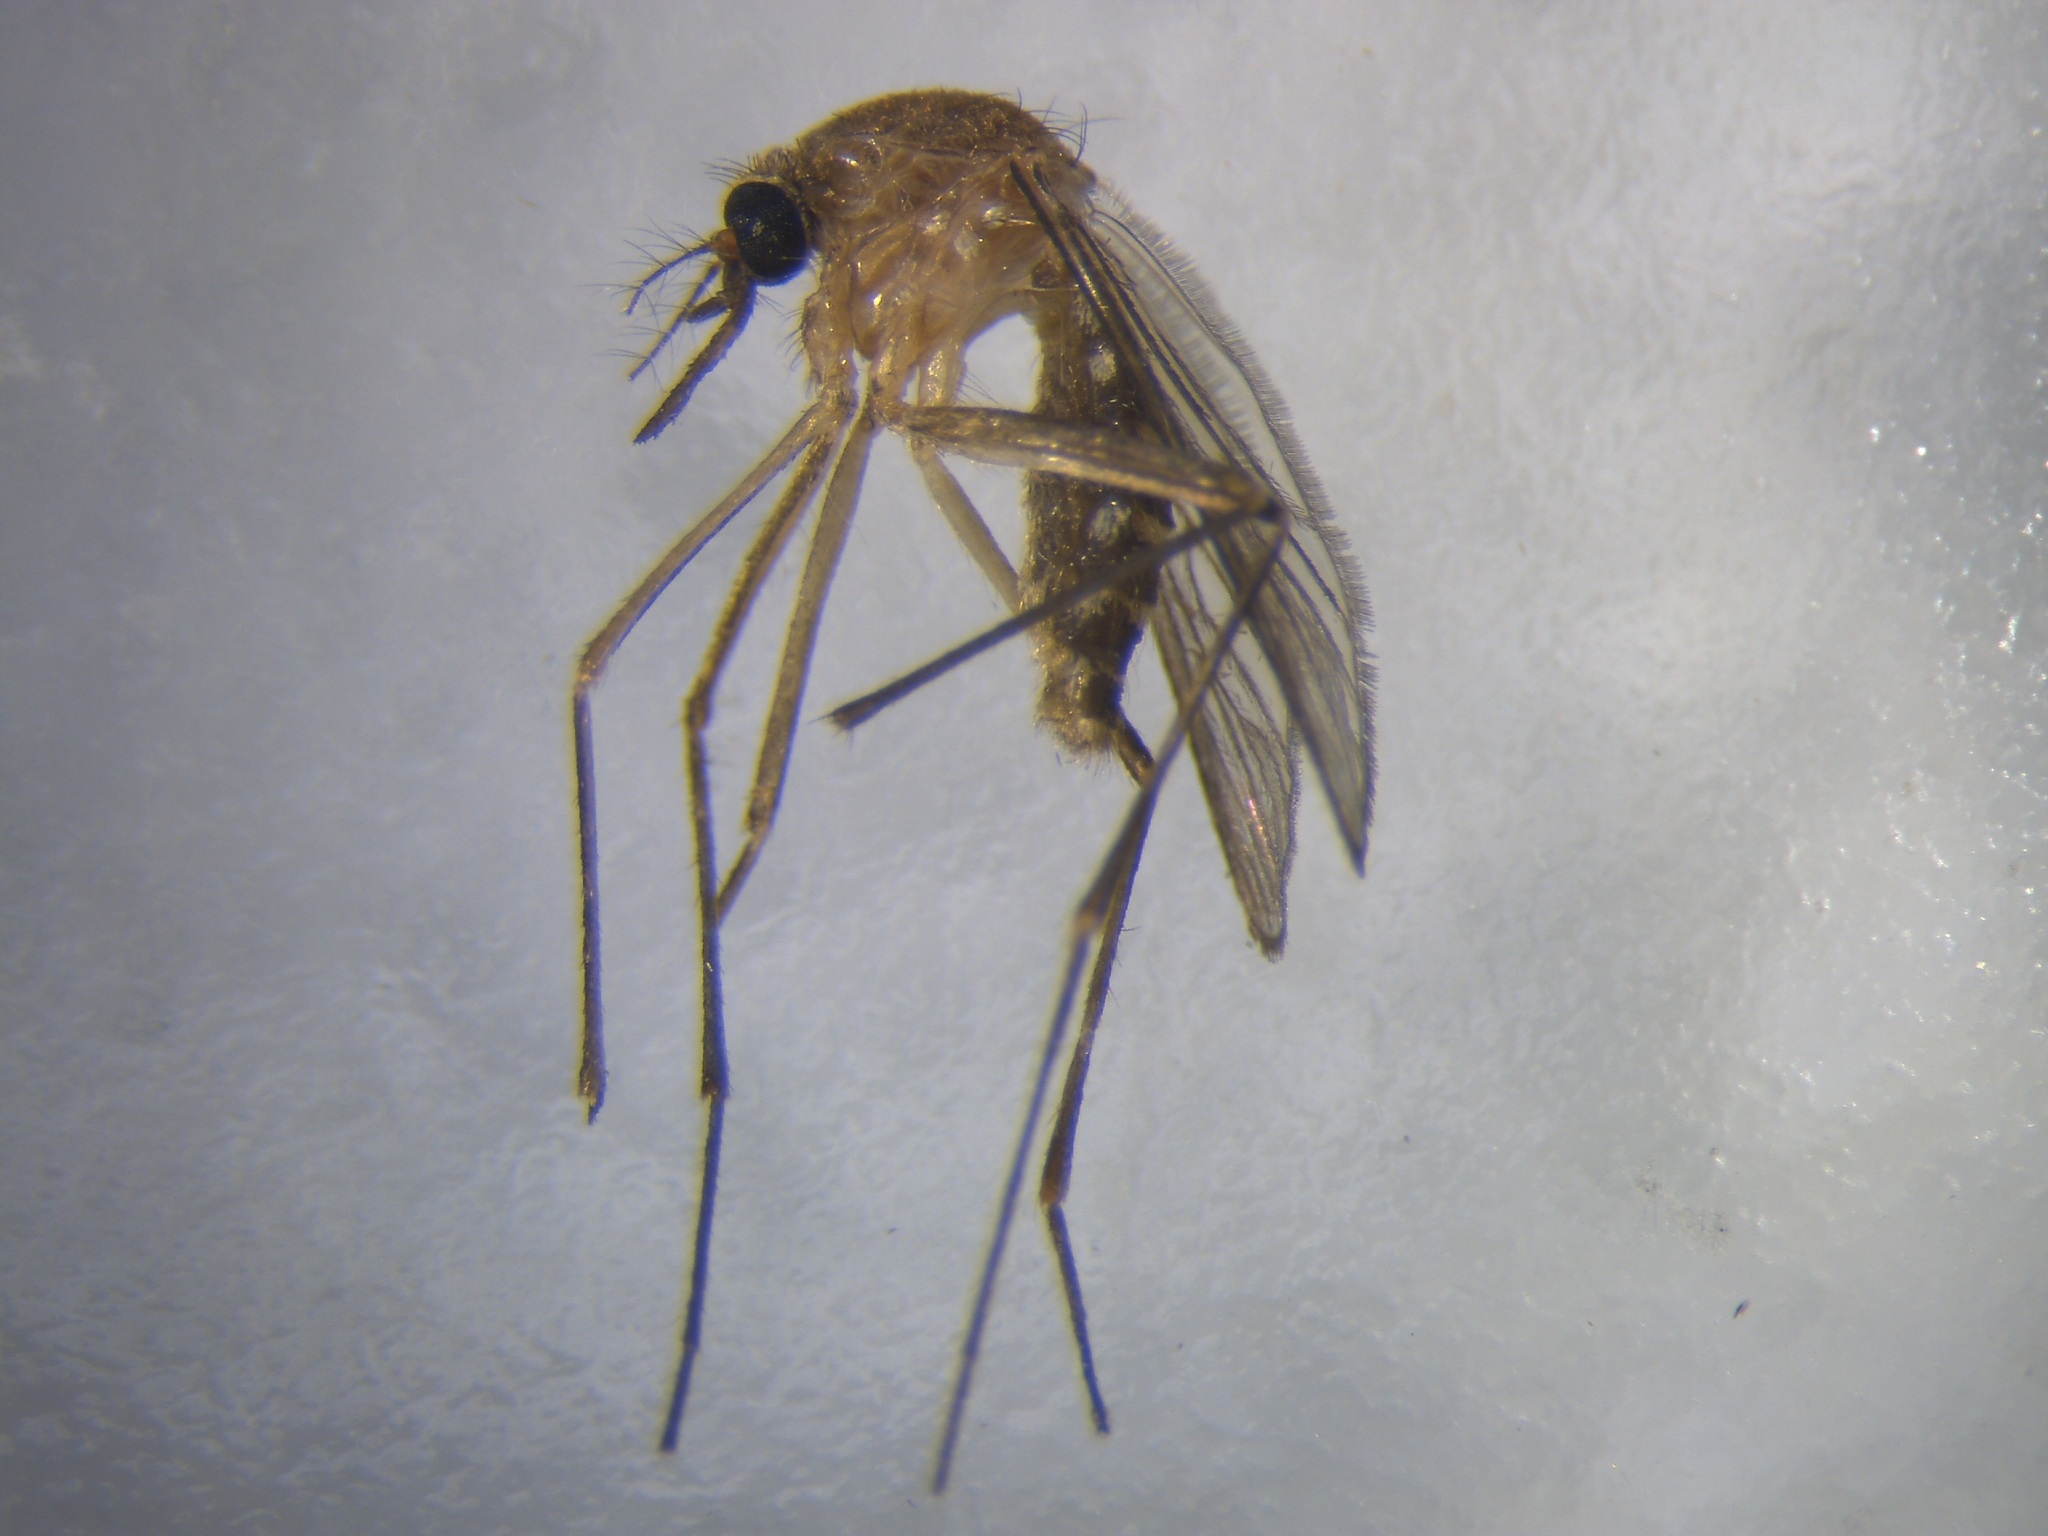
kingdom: Animalia
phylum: Arthropoda
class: Insecta
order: Diptera
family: Culicidae
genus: Culex
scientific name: Culex quinquefasciatus
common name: Southern house mosquito
